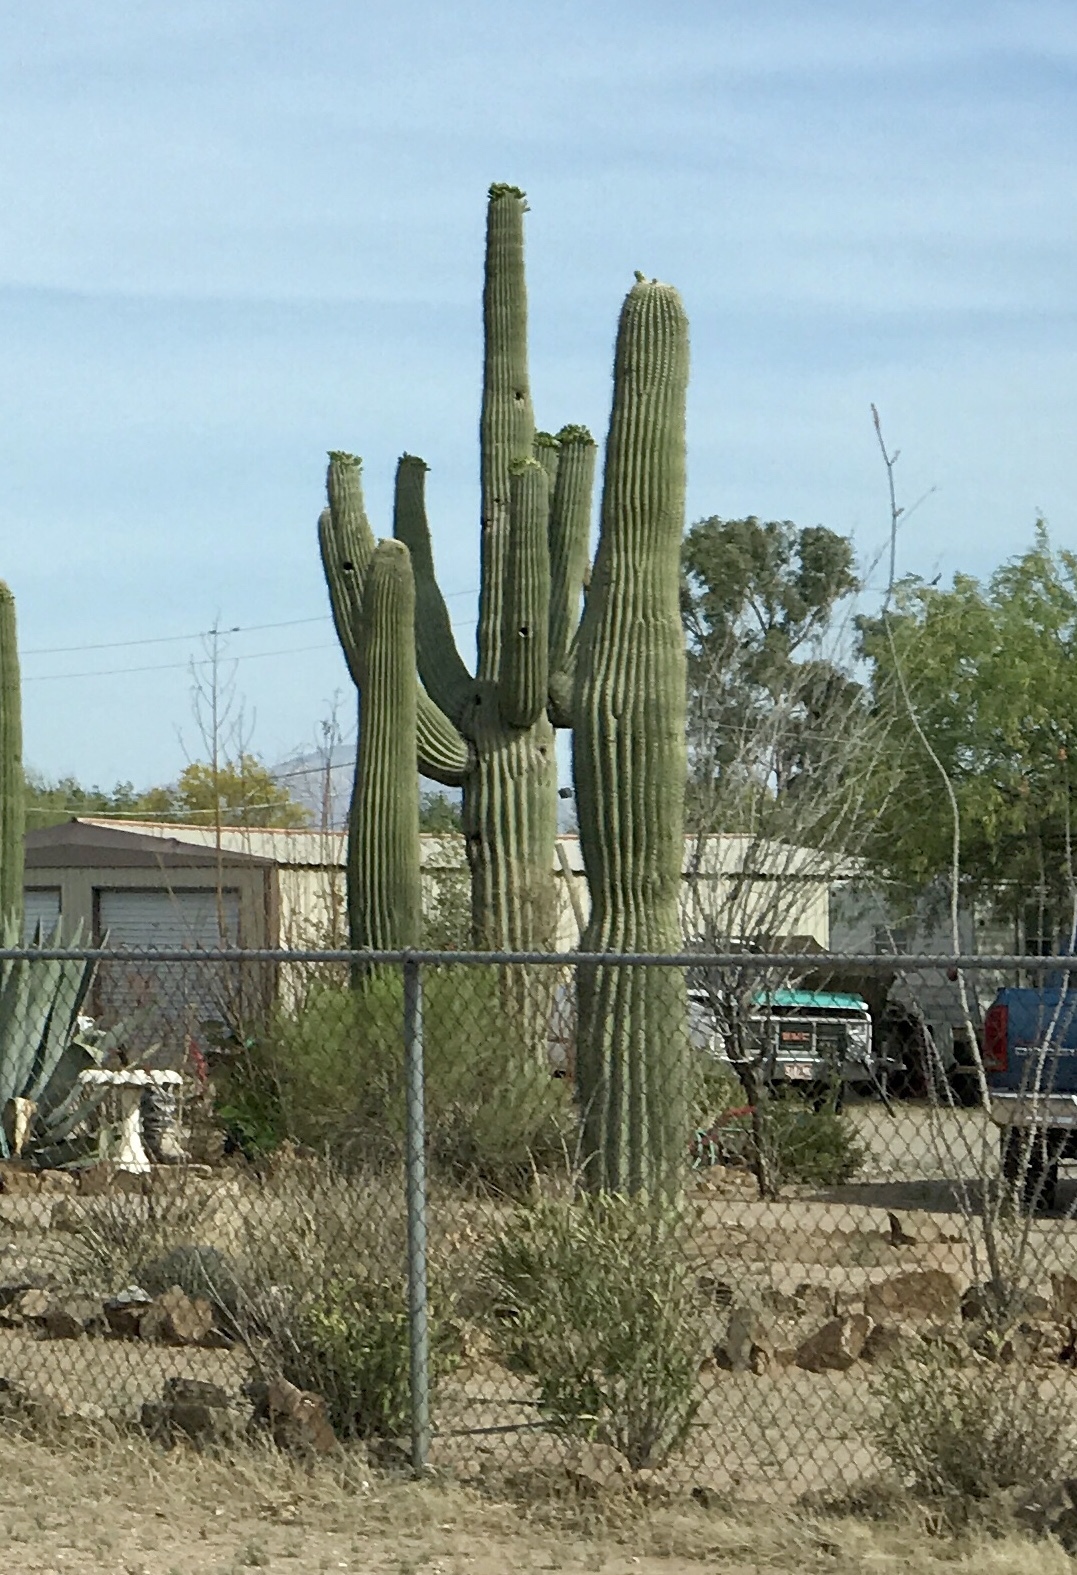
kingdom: Plantae
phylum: Tracheophyta
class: Magnoliopsida
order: Caryophyllales
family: Cactaceae
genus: Carnegiea
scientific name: Carnegiea gigantea
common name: Saguaro
